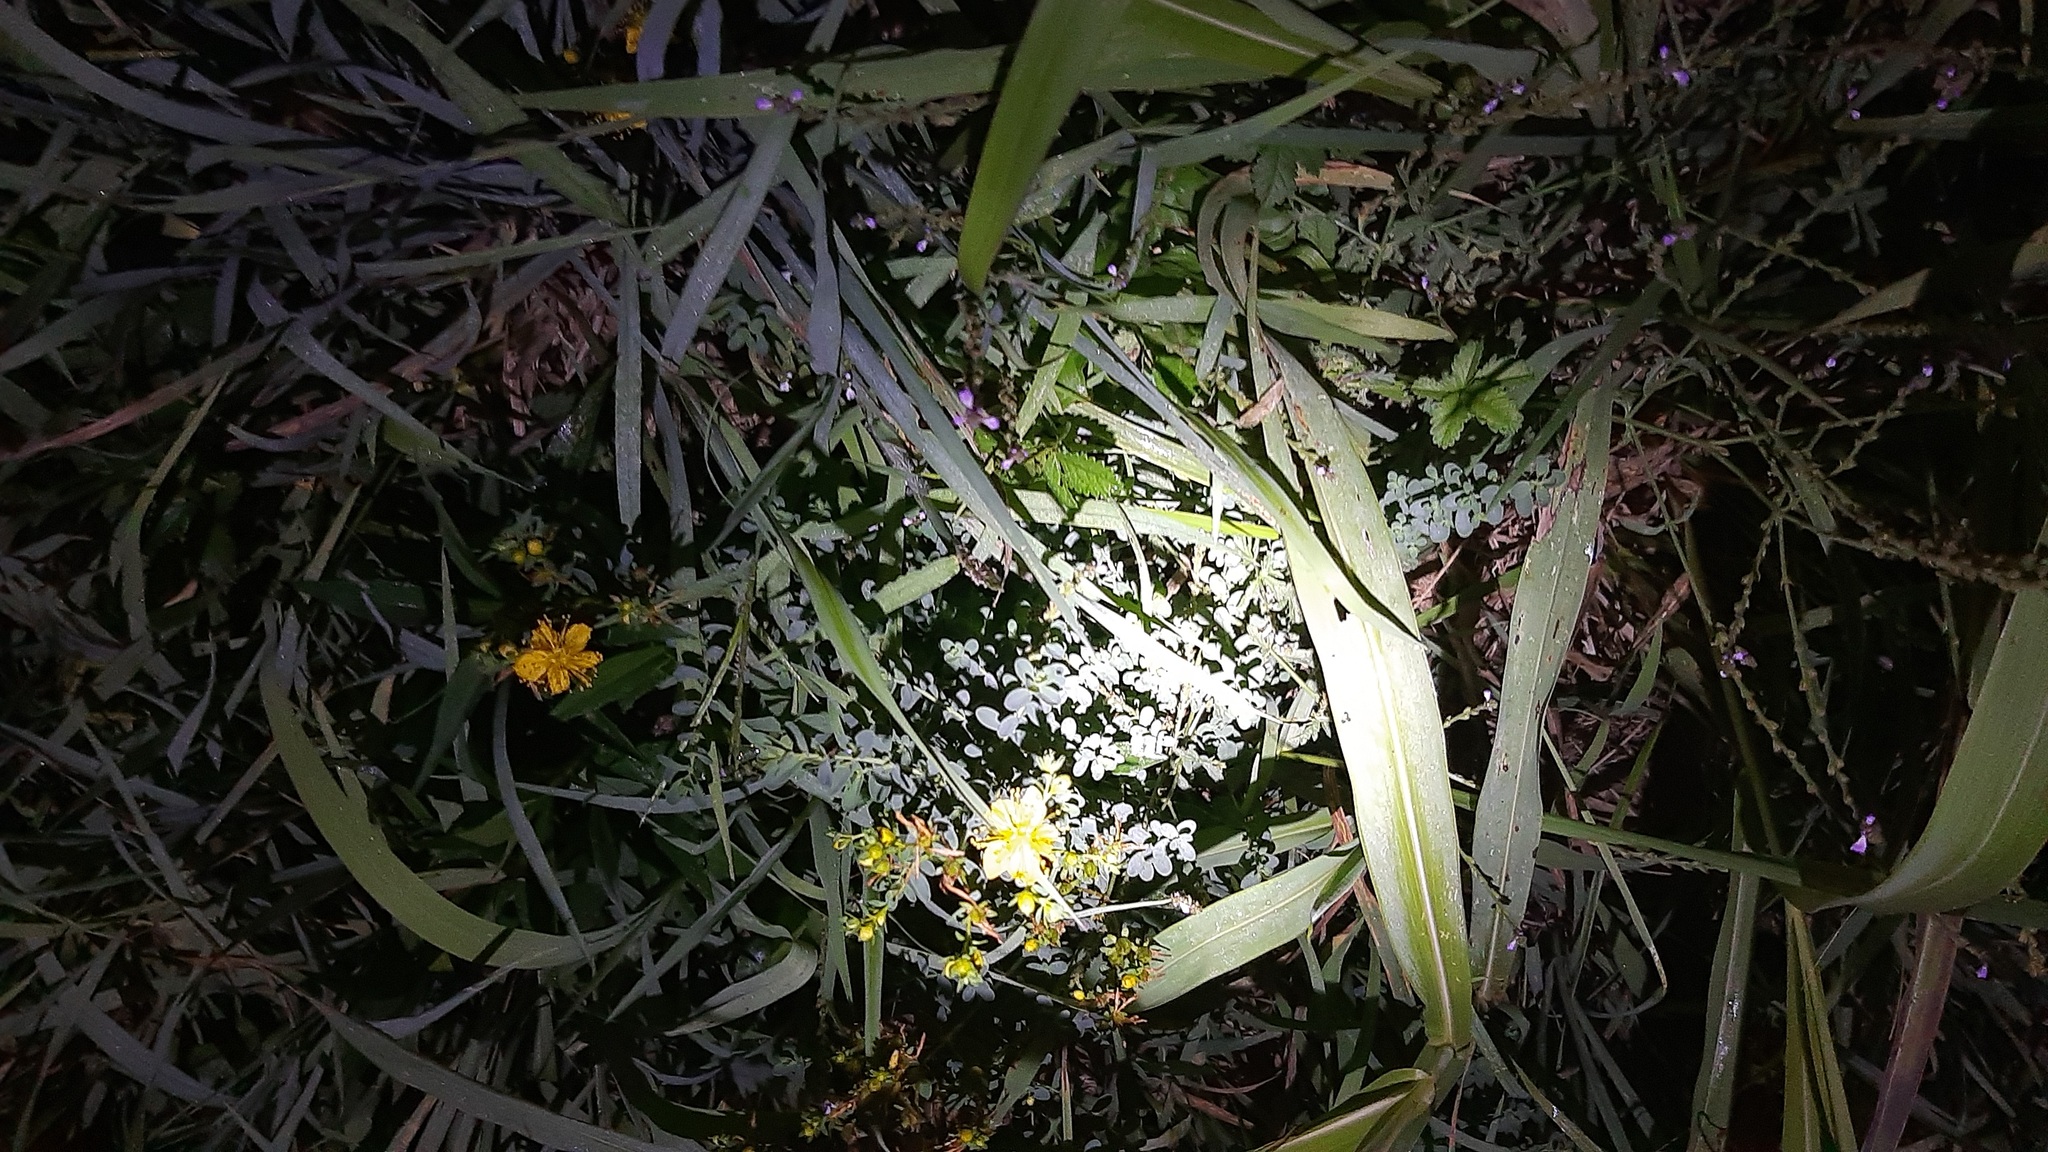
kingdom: Plantae
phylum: Tracheophyta
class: Magnoliopsida
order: Lamiales
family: Verbenaceae
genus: Verbena
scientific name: Verbena officinalis
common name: Vervain
